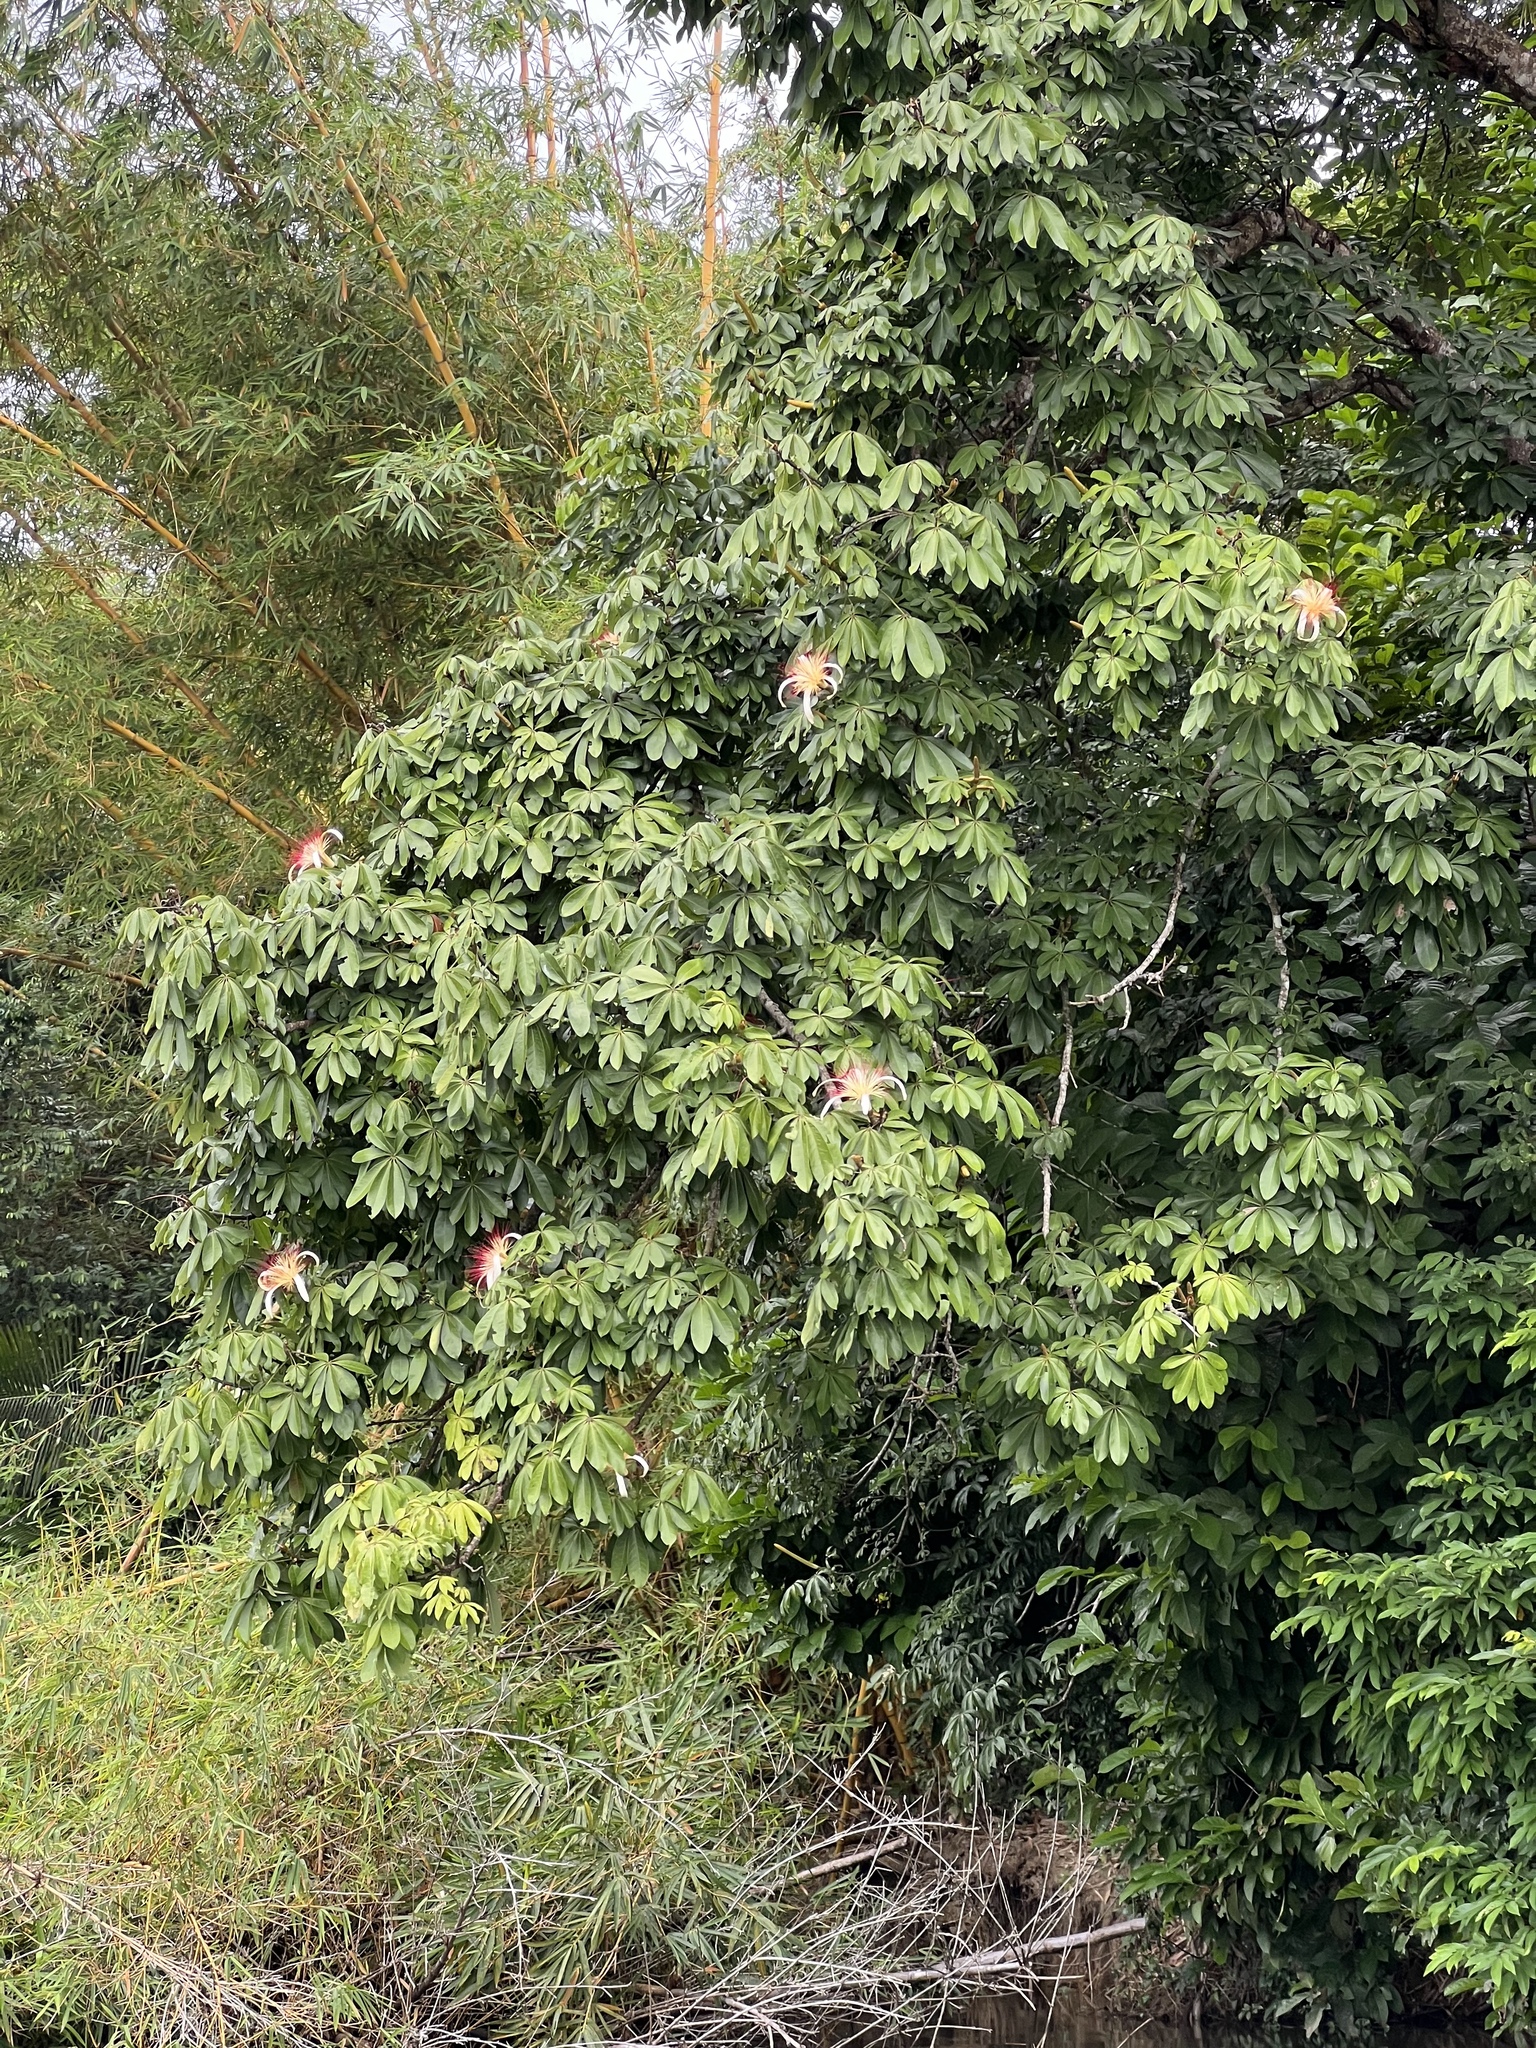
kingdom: Plantae
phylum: Tracheophyta
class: Magnoliopsida
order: Malvales
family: Malvaceae
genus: Pachira
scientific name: Pachira aquatica
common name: Provision-tree
